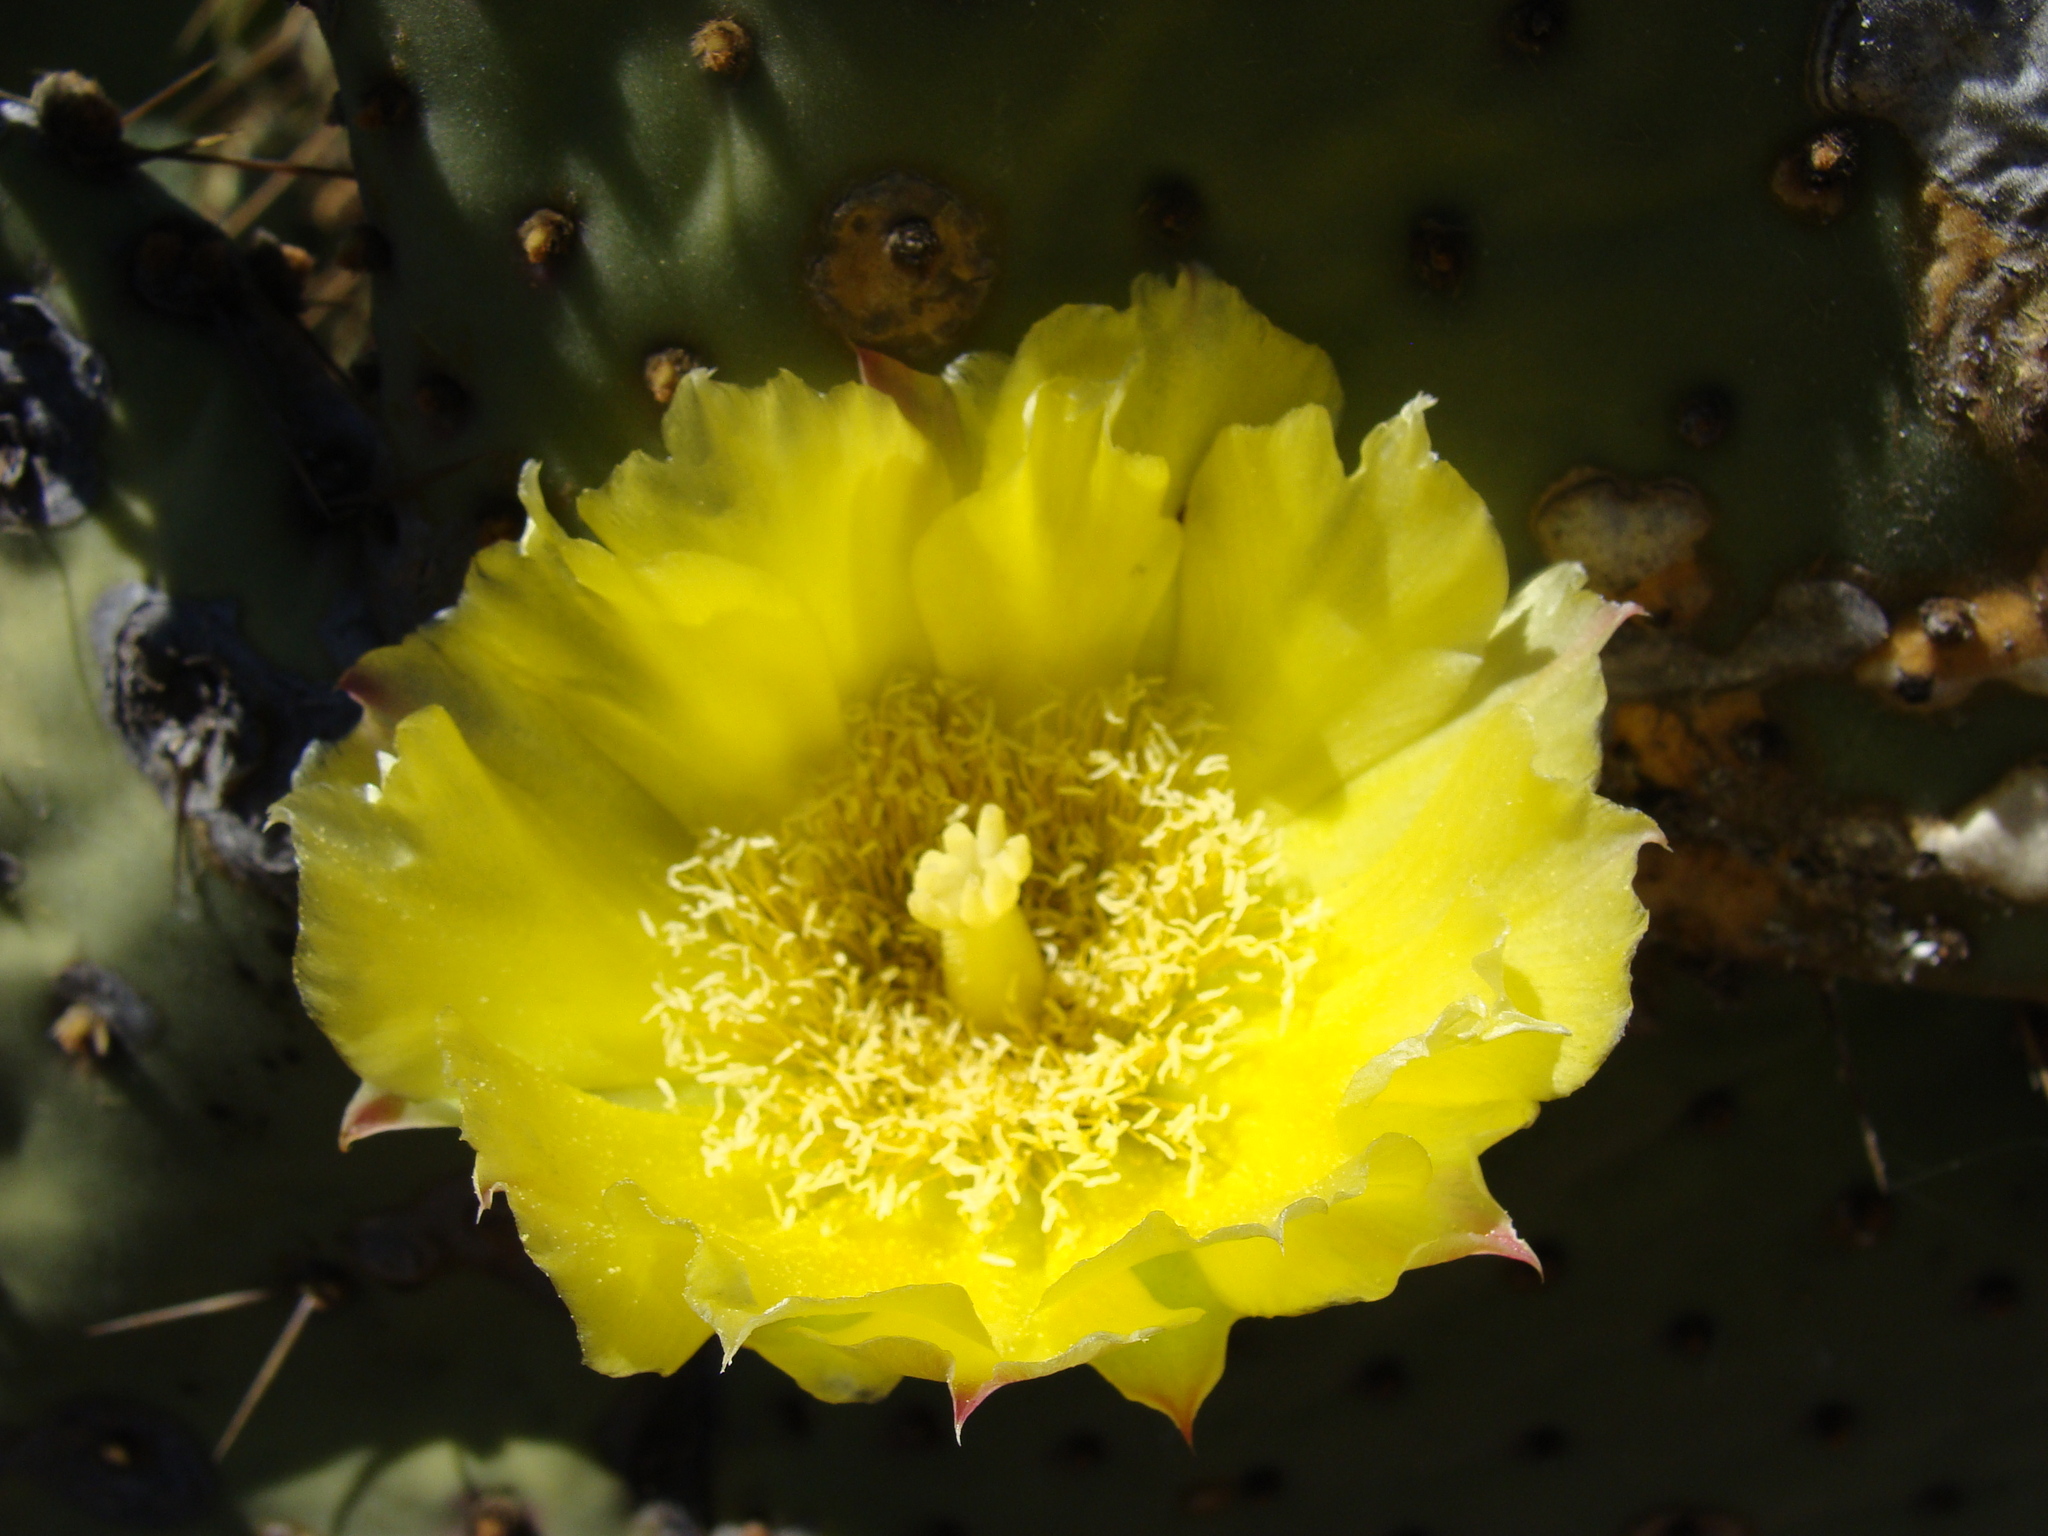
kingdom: Plantae
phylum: Tracheophyta
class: Magnoliopsida
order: Caryophyllales
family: Cactaceae
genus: Opuntia
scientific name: Opuntia caboensis
